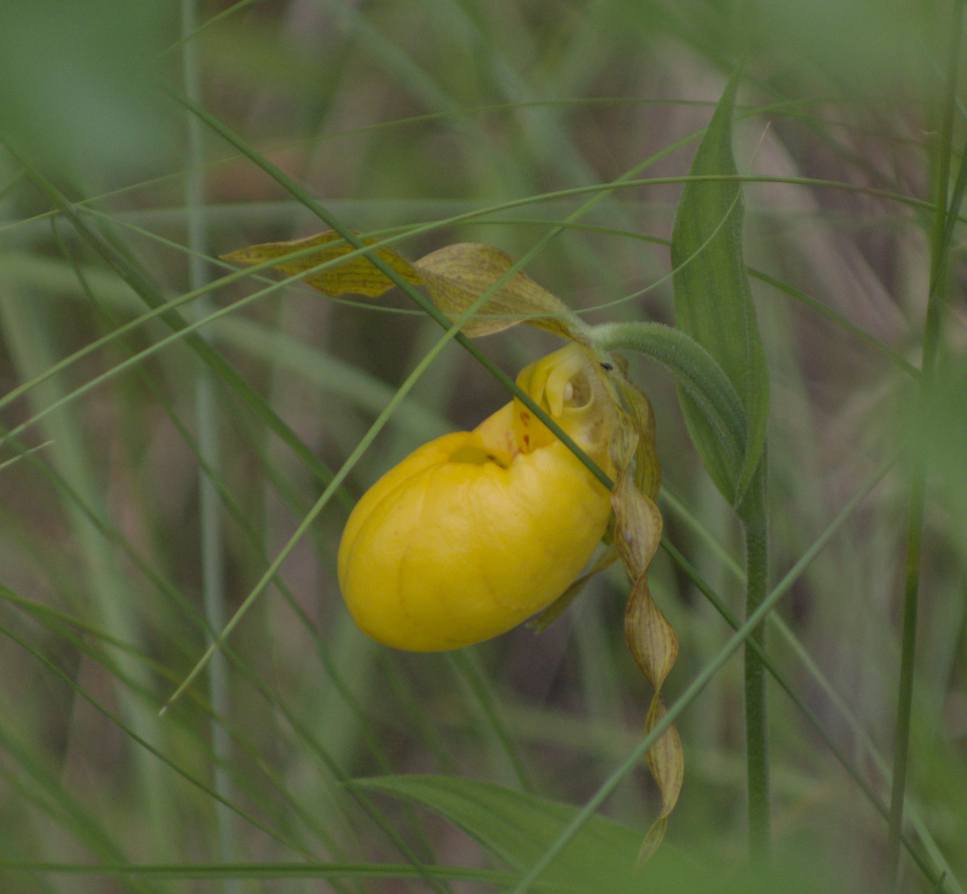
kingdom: Plantae
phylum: Tracheophyta
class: Liliopsida
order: Asparagales
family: Orchidaceae
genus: Cypripedium
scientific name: Cypripedium parviflorum
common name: American yellow lady's-slipper
